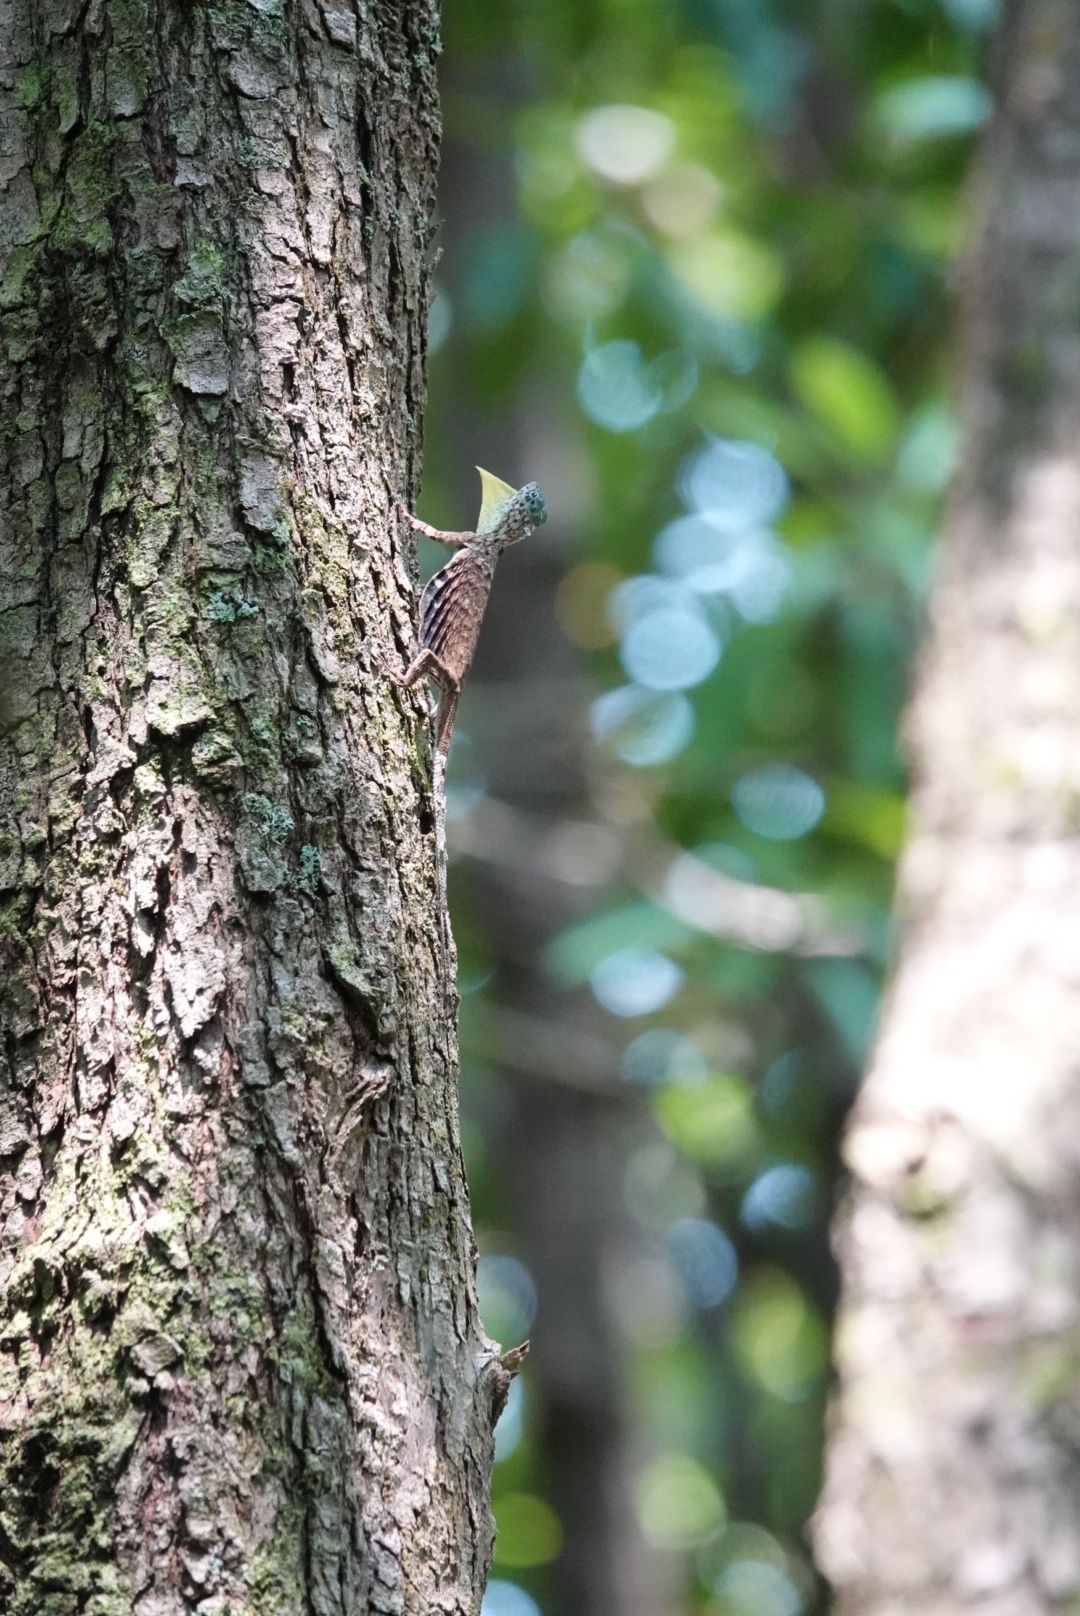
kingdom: Animalia
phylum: Chordata
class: Squamata
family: Agamidae
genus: Draco
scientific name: Draco sumatranus
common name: Common gliding lizard
